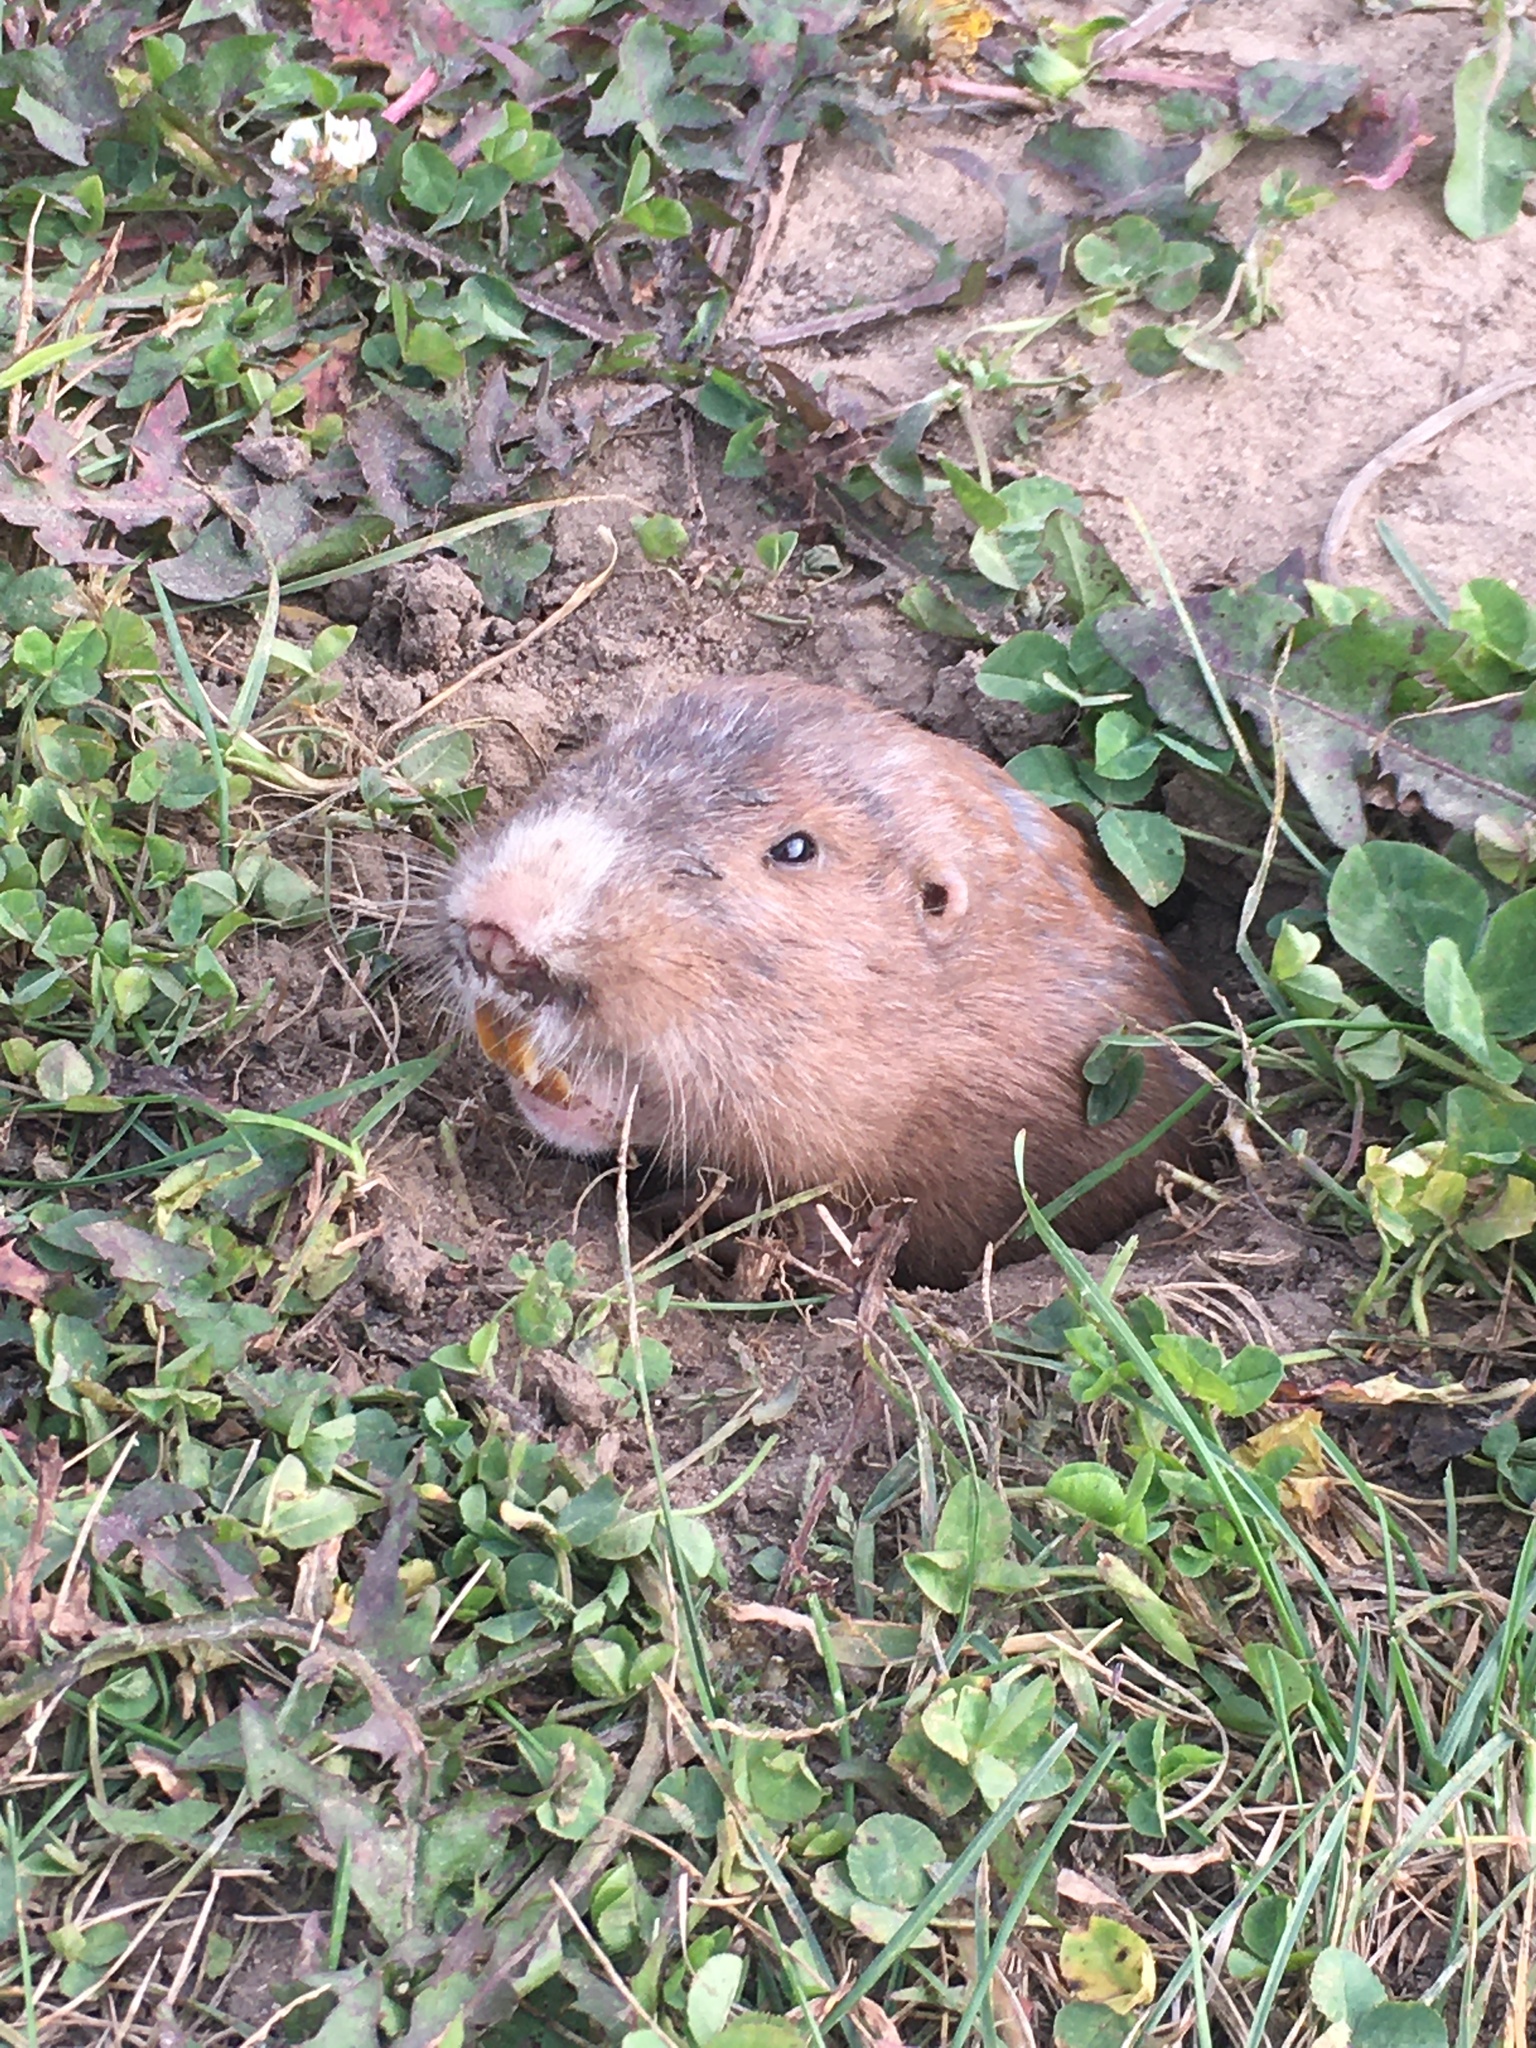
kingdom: Animalia
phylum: Chordata
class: Mammalia
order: Rodentia
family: Geomyidae
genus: Geomys
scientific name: Geomys bursarius
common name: Plains pocket gopher
